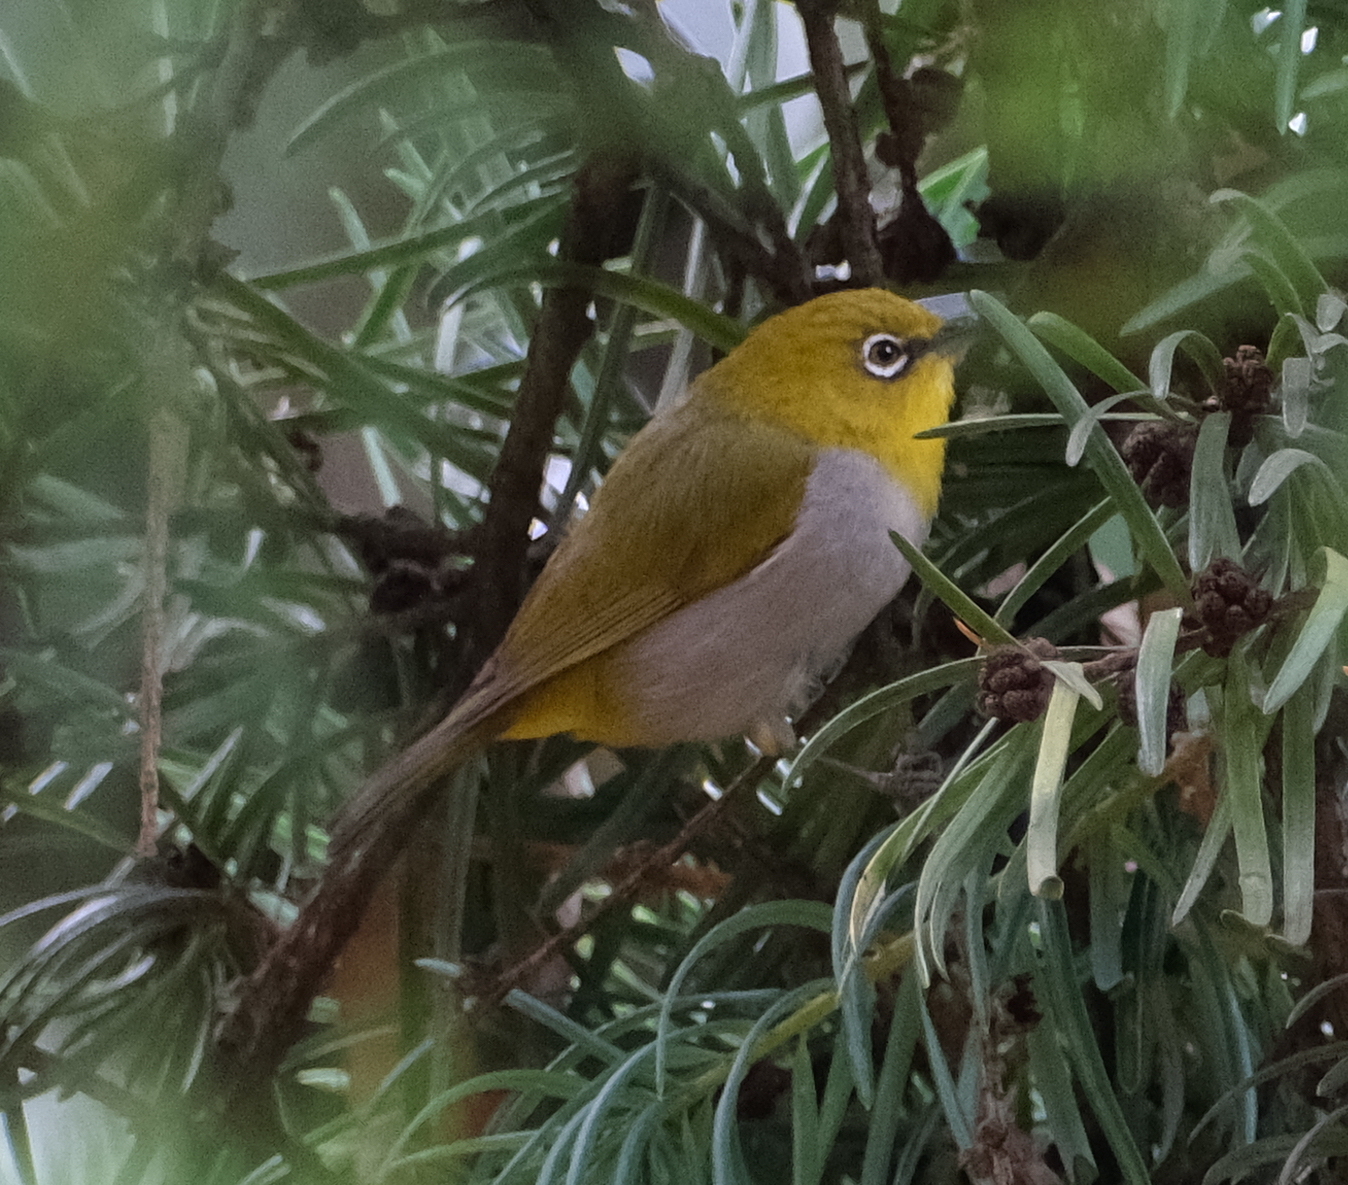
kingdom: Animalia
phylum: Chordata
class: Aves
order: Passeriformes
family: Zosteropidae
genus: Zosterops
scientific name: Zosterops palpebrosus
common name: Oriental white-eye
